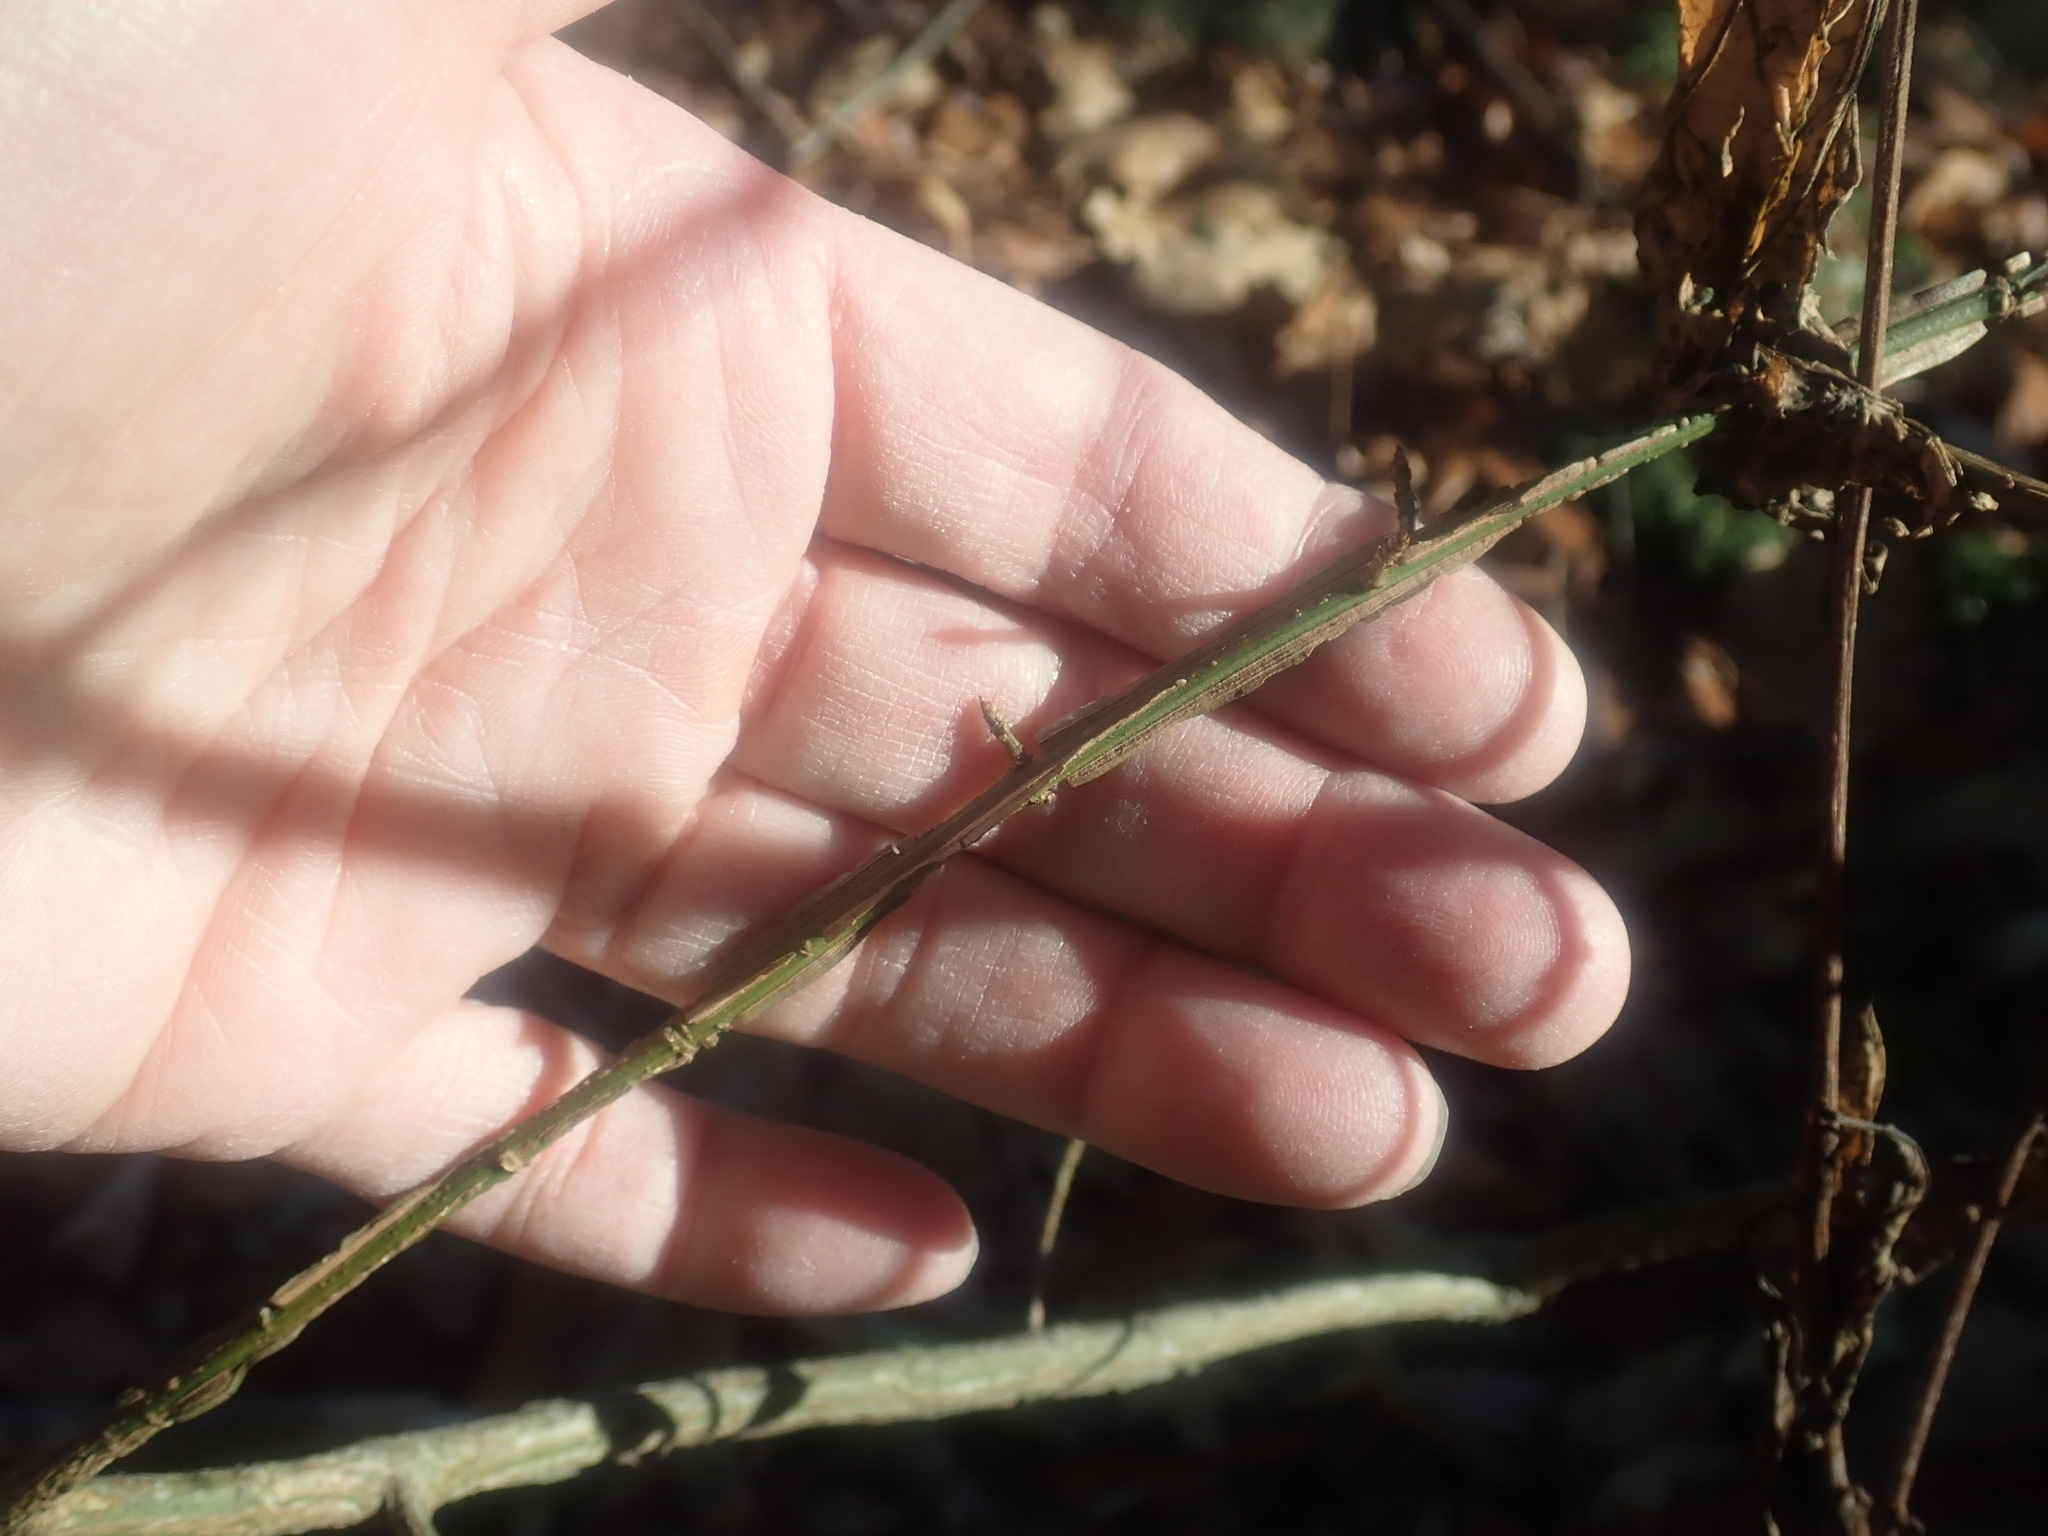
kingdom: Plantae
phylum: Tracheophyta
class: Magnoliopsida
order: Celastrales
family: Celastraceae
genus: Euonymus
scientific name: Euonymus alatus
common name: Winged euonymus
